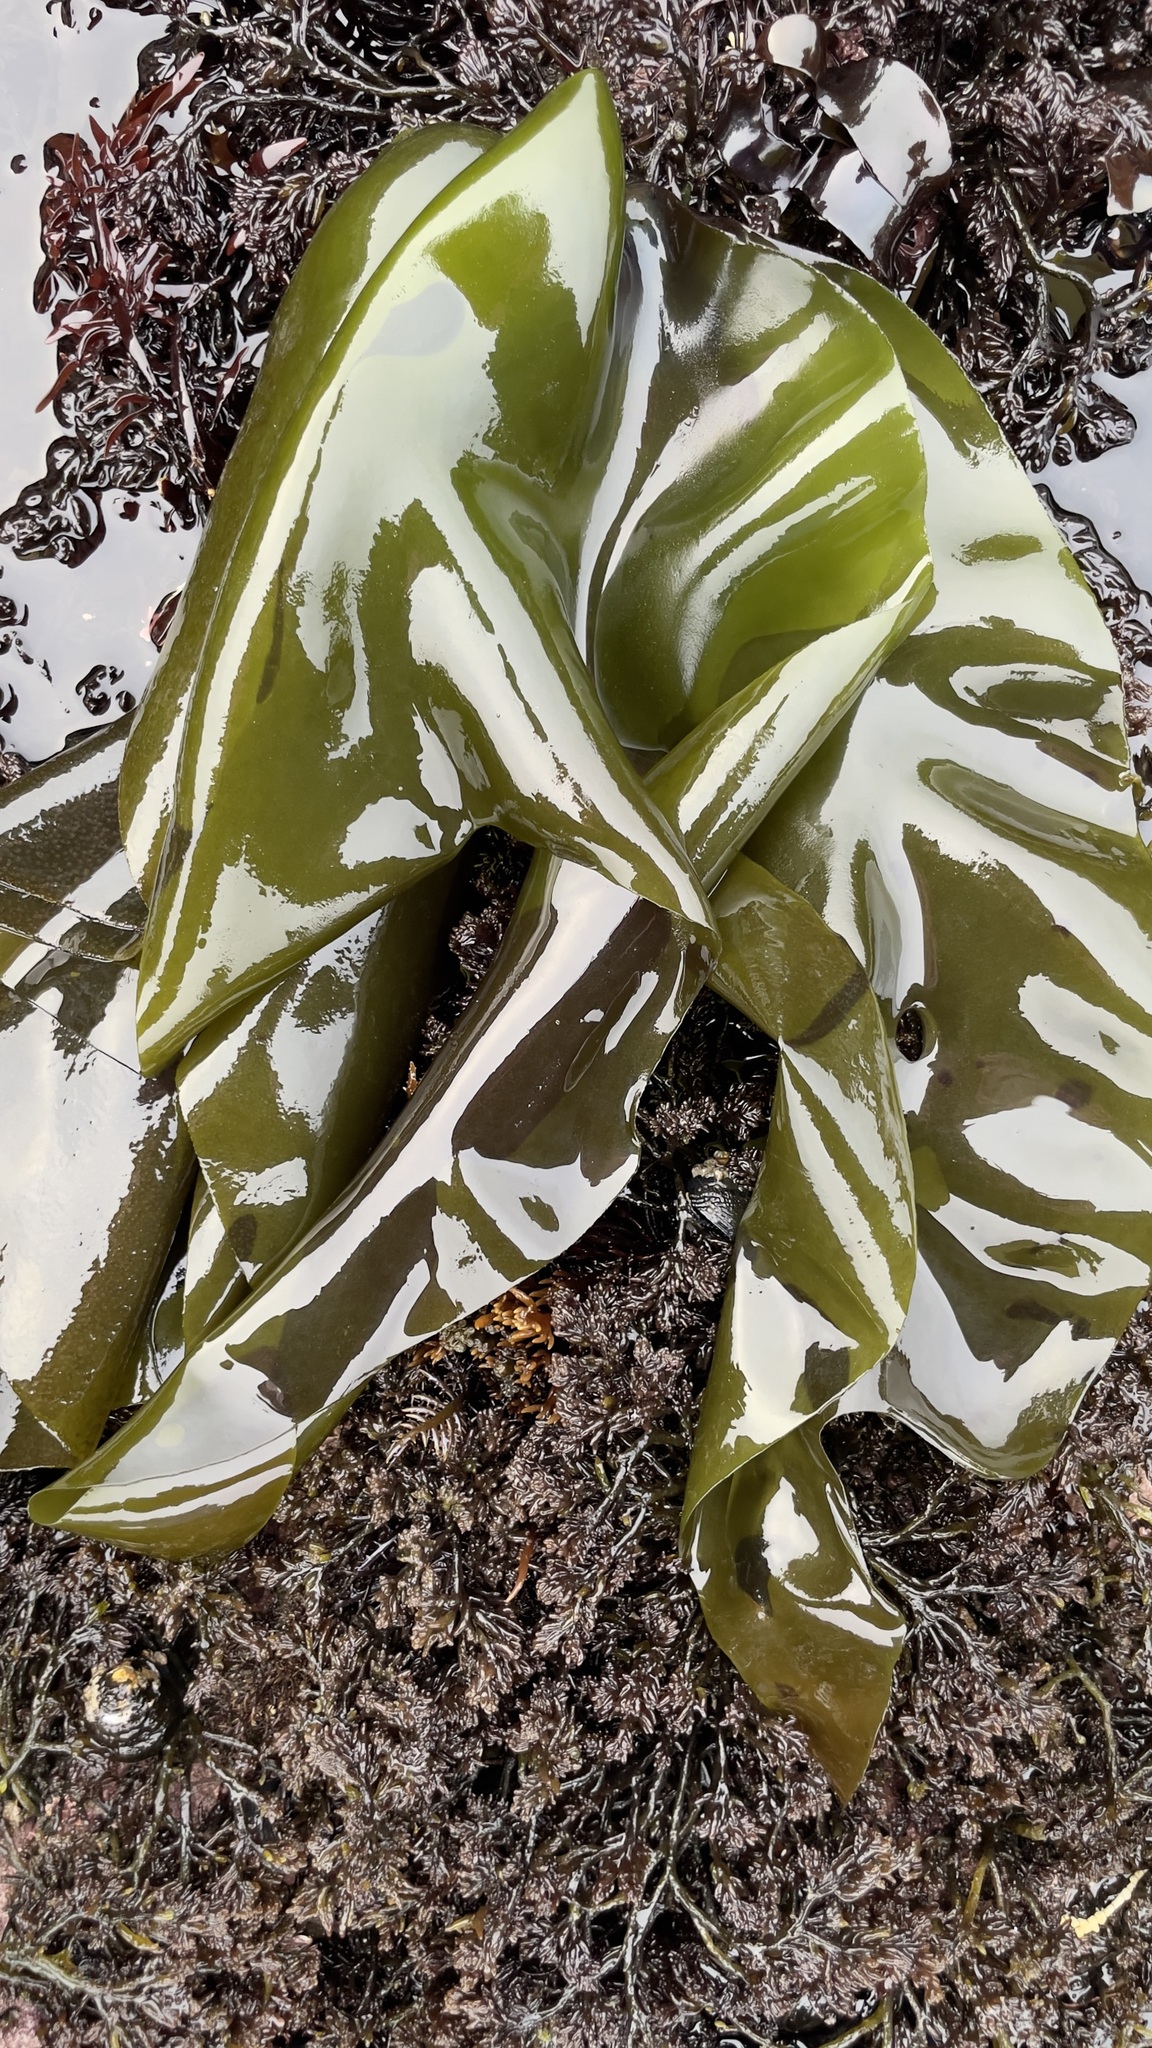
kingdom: Plantae
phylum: Rhodophyta
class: Florideophyceae
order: Gigartinales
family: Gigartinaceae
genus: Mazzaella
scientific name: Mazzaella flaccida
